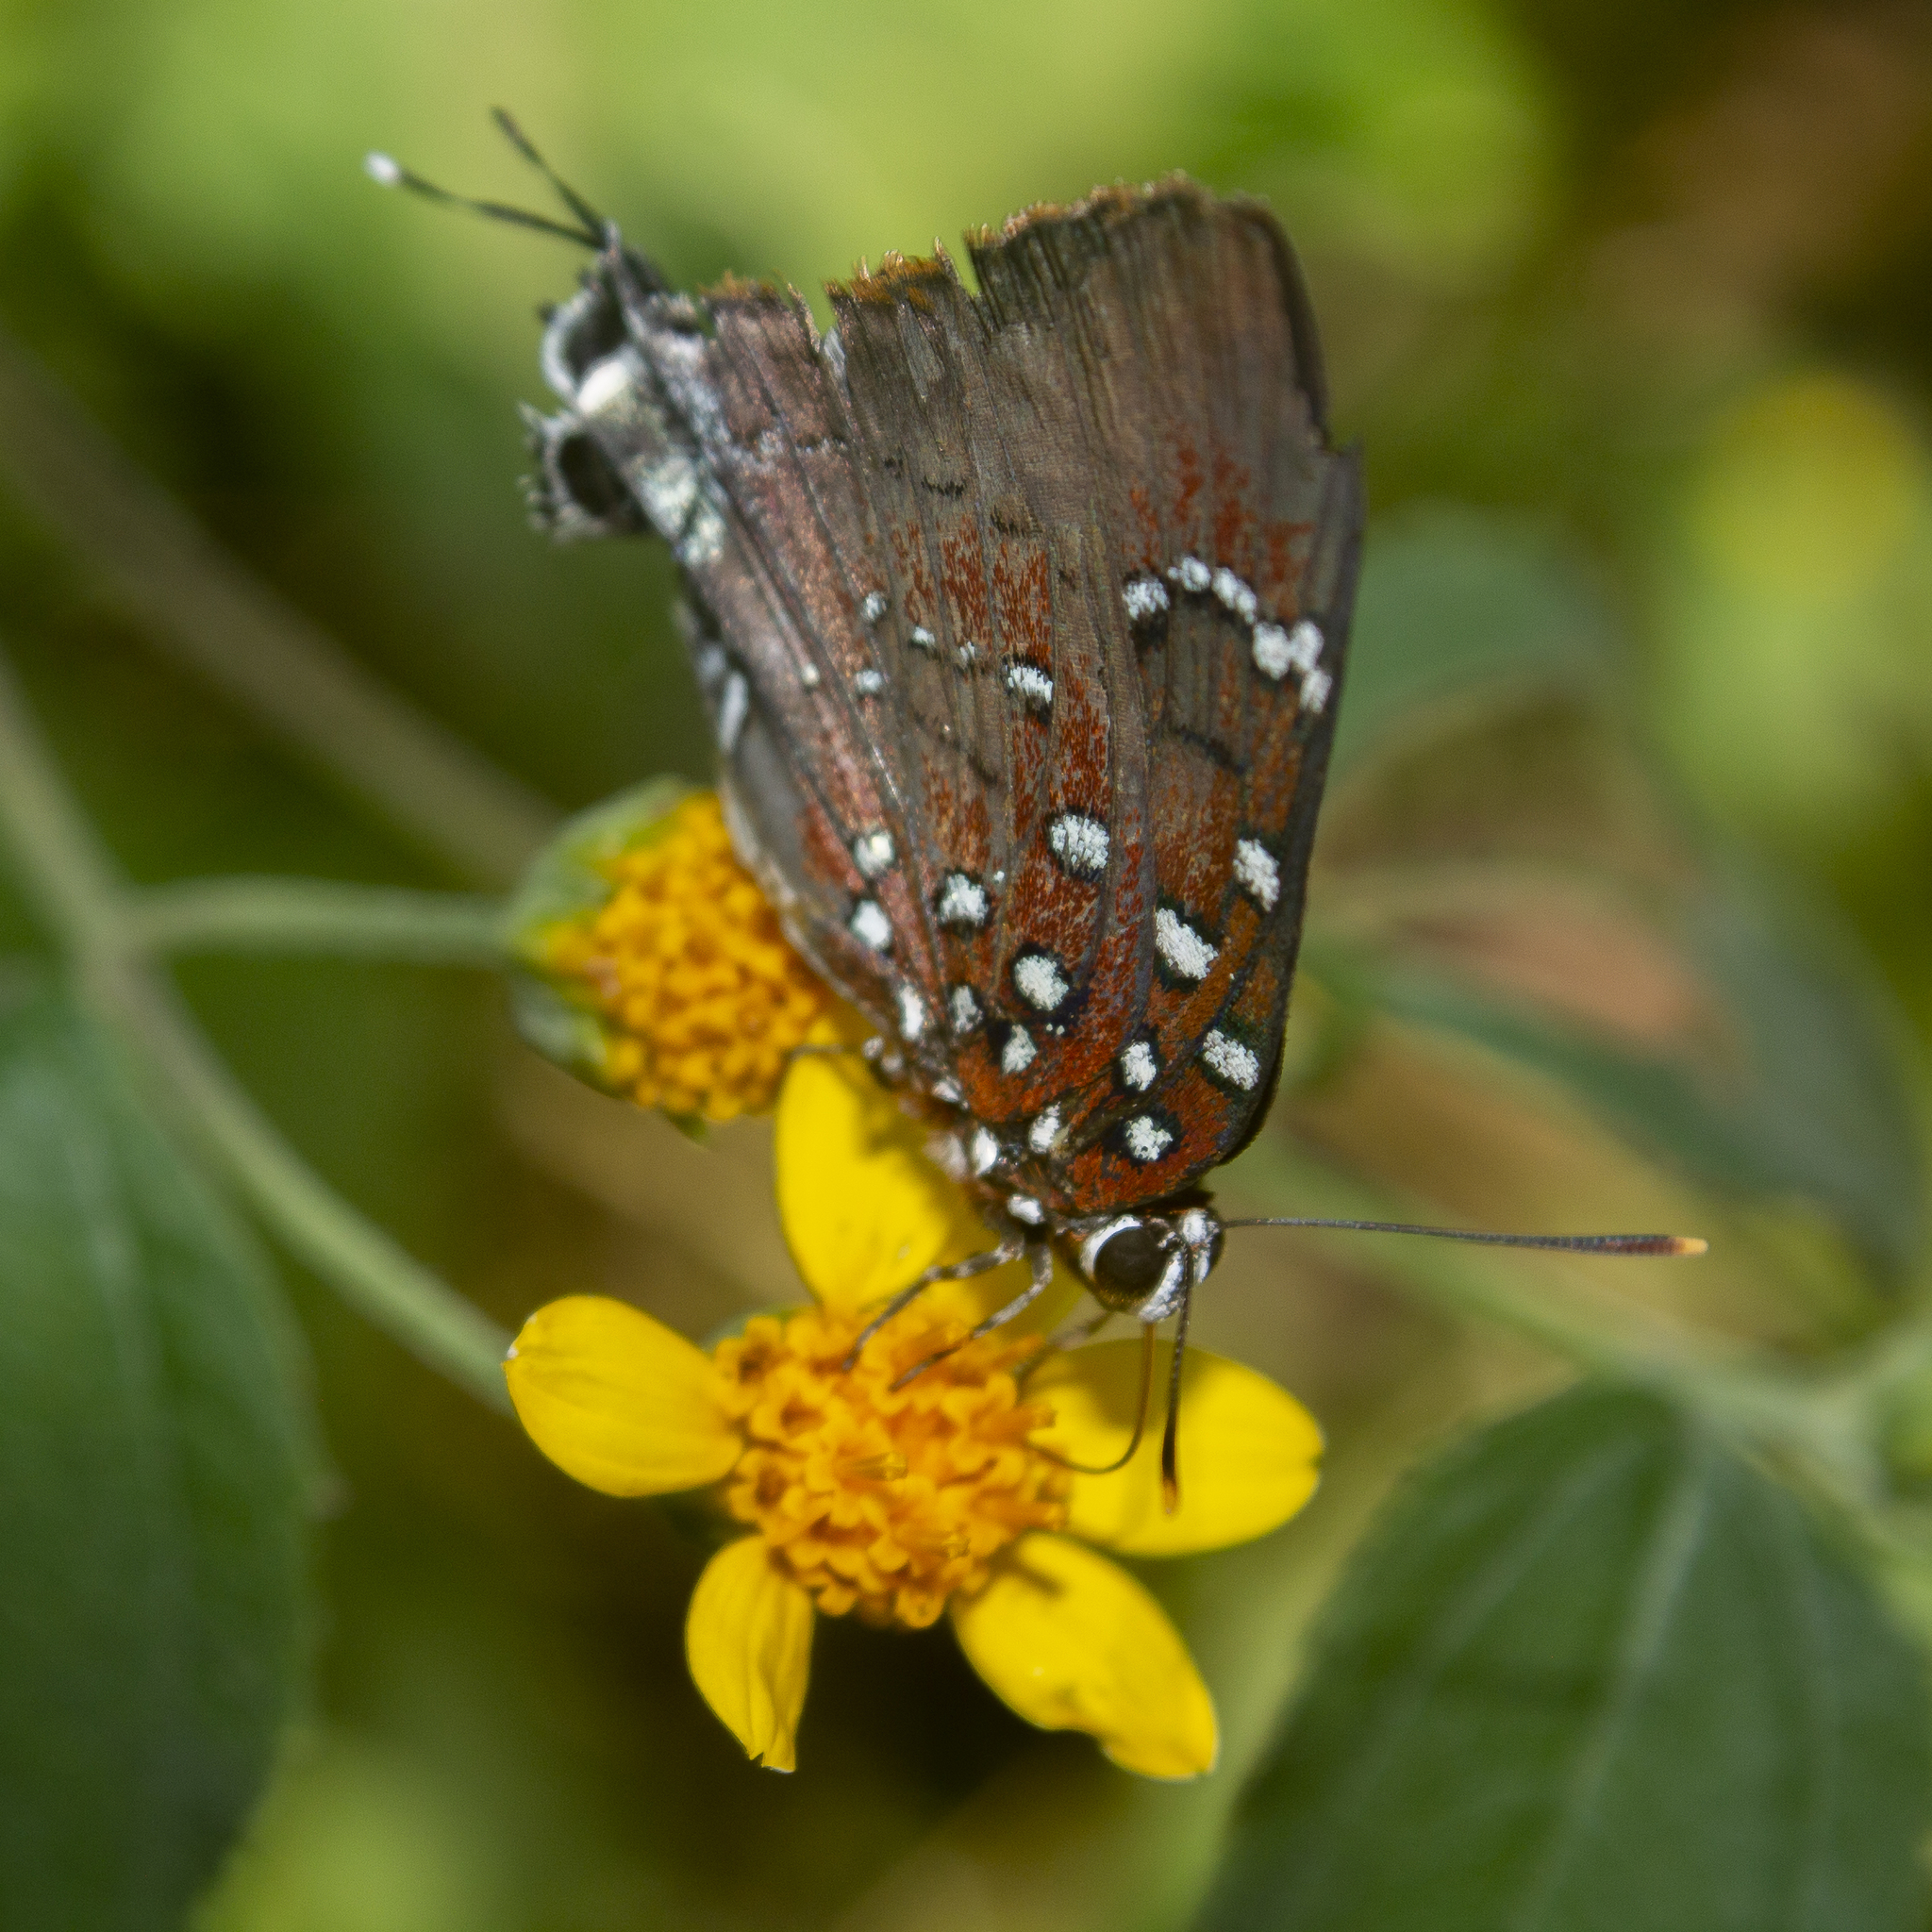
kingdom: Animalia
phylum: Arthropoda
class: Insecta
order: Lepidoptera
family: Lycaenidae
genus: Atlides
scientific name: Atlides
